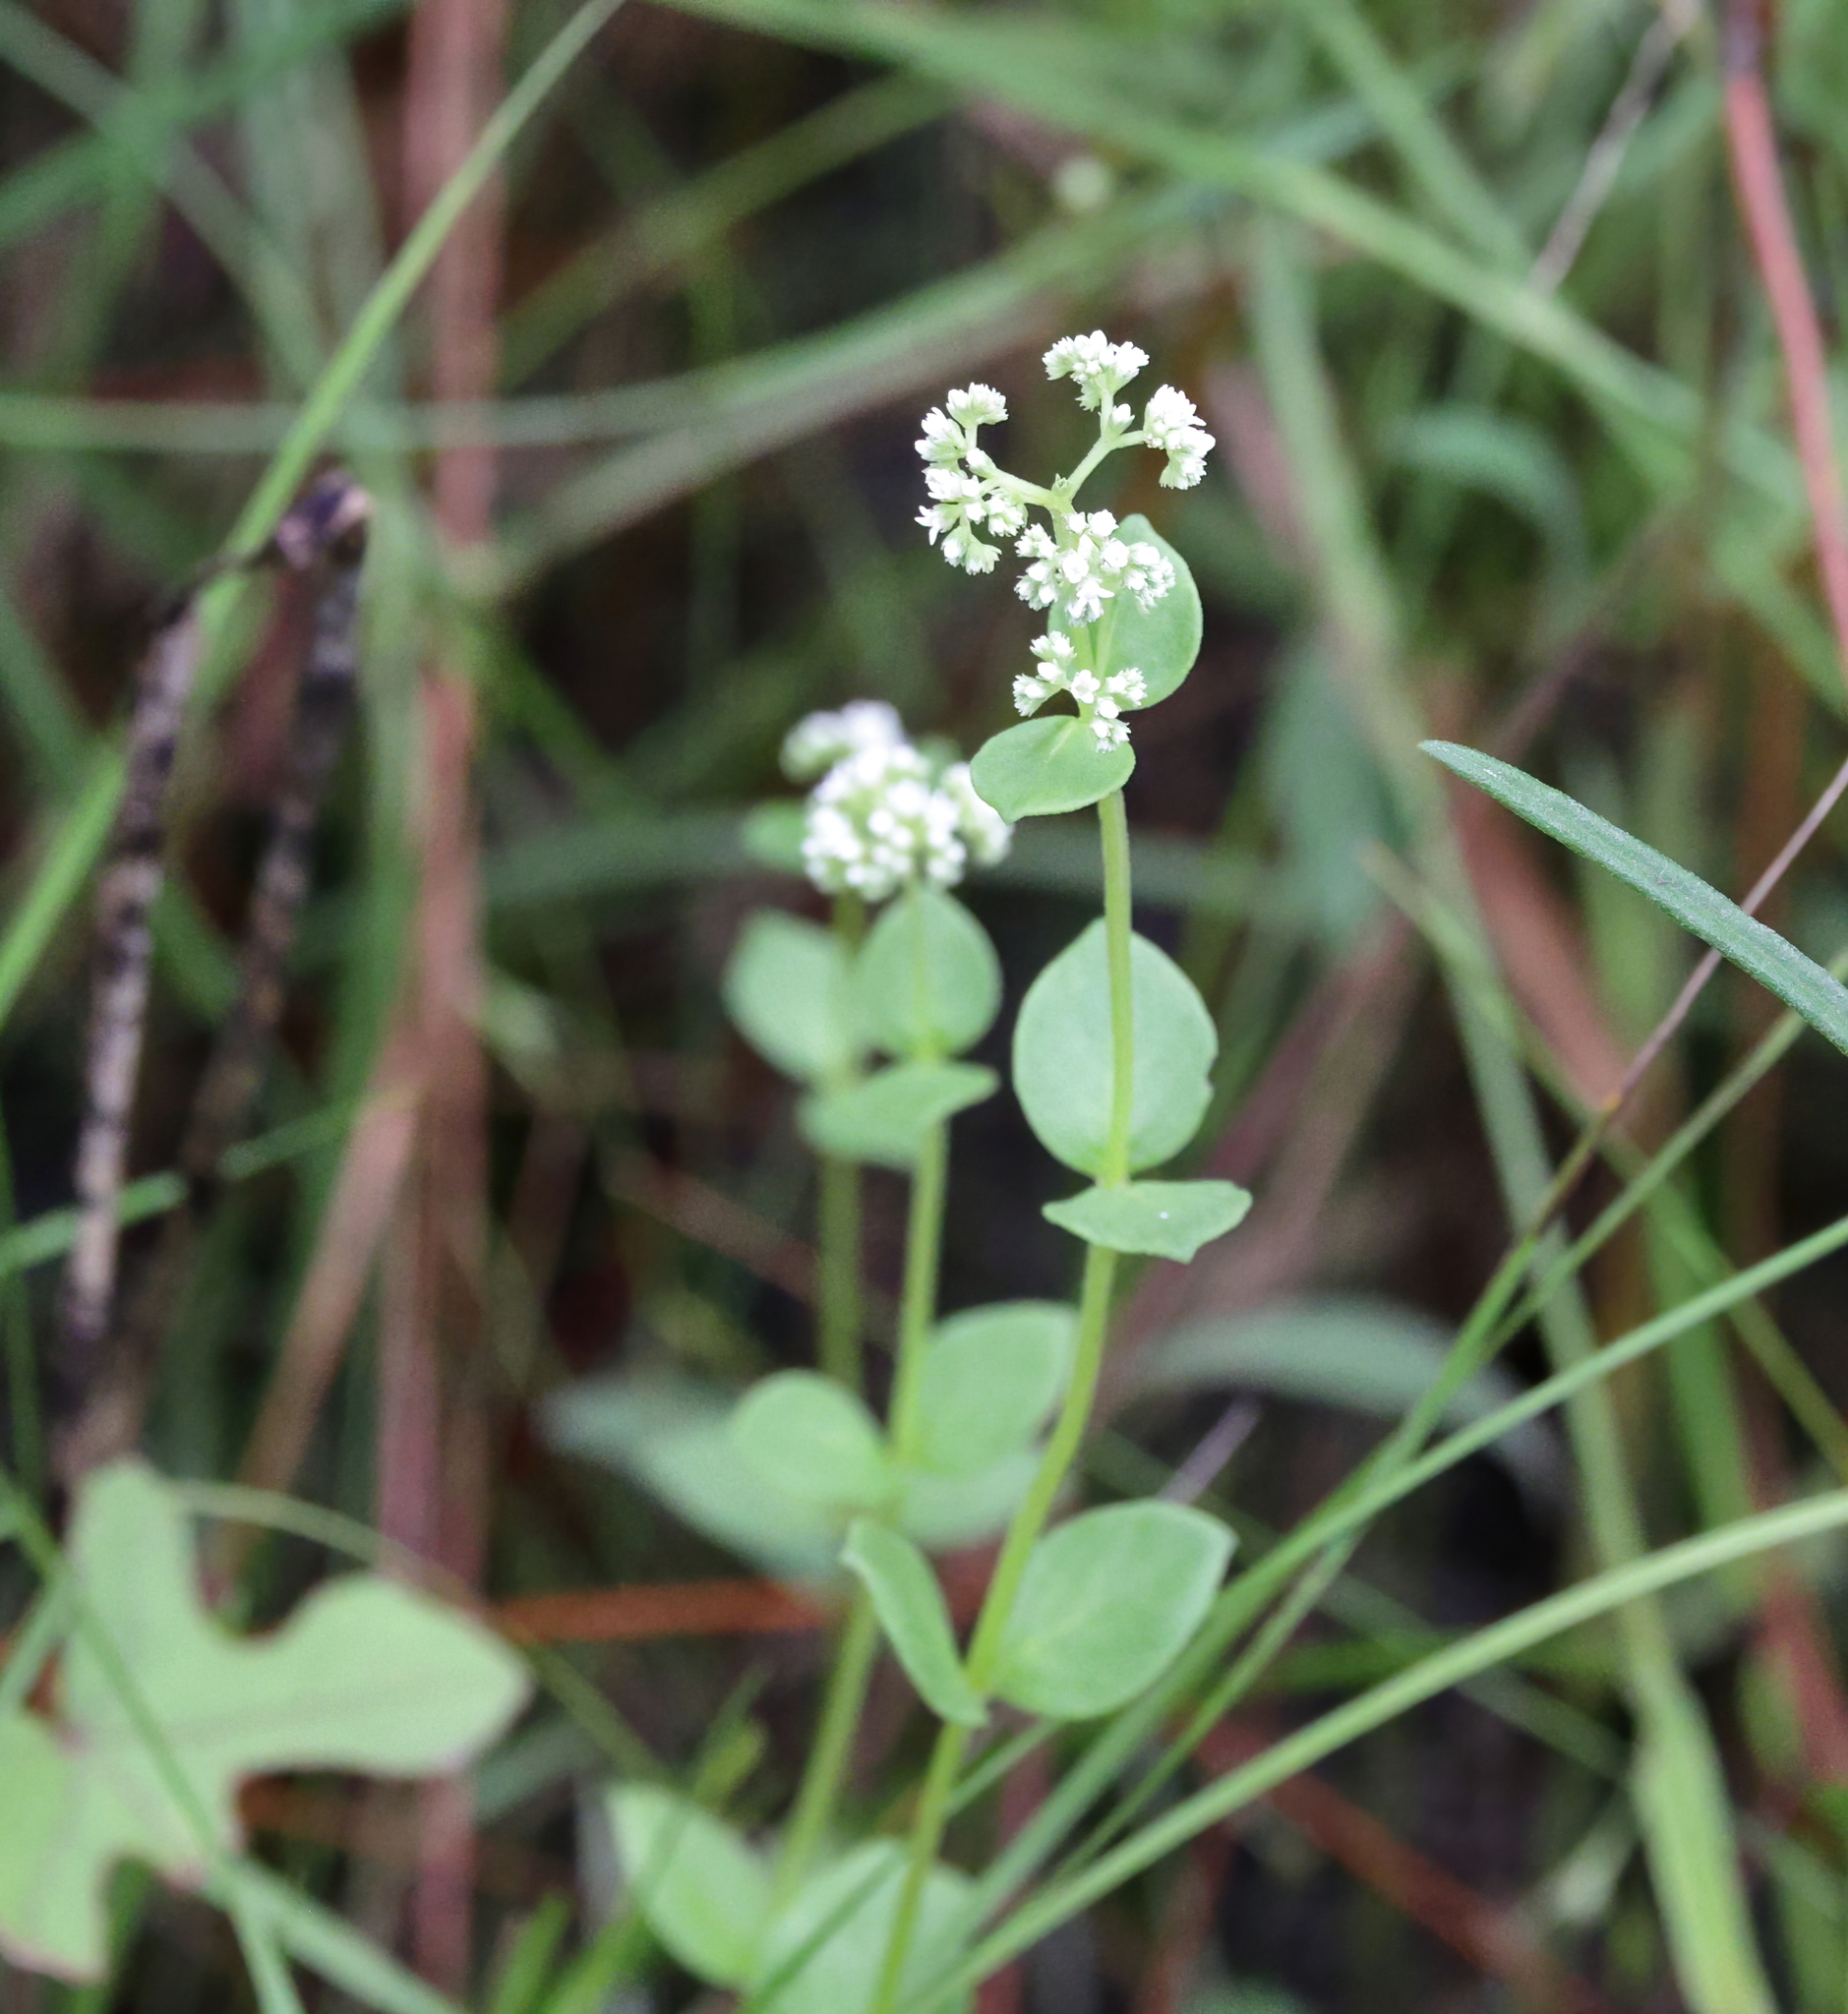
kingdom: Plantae
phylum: Tracheophyta
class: Magnoliopsida
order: Gentianales
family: Loganiaceae
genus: Mitreola
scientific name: Mitreola sessilifolia
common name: Swamp hornpod
